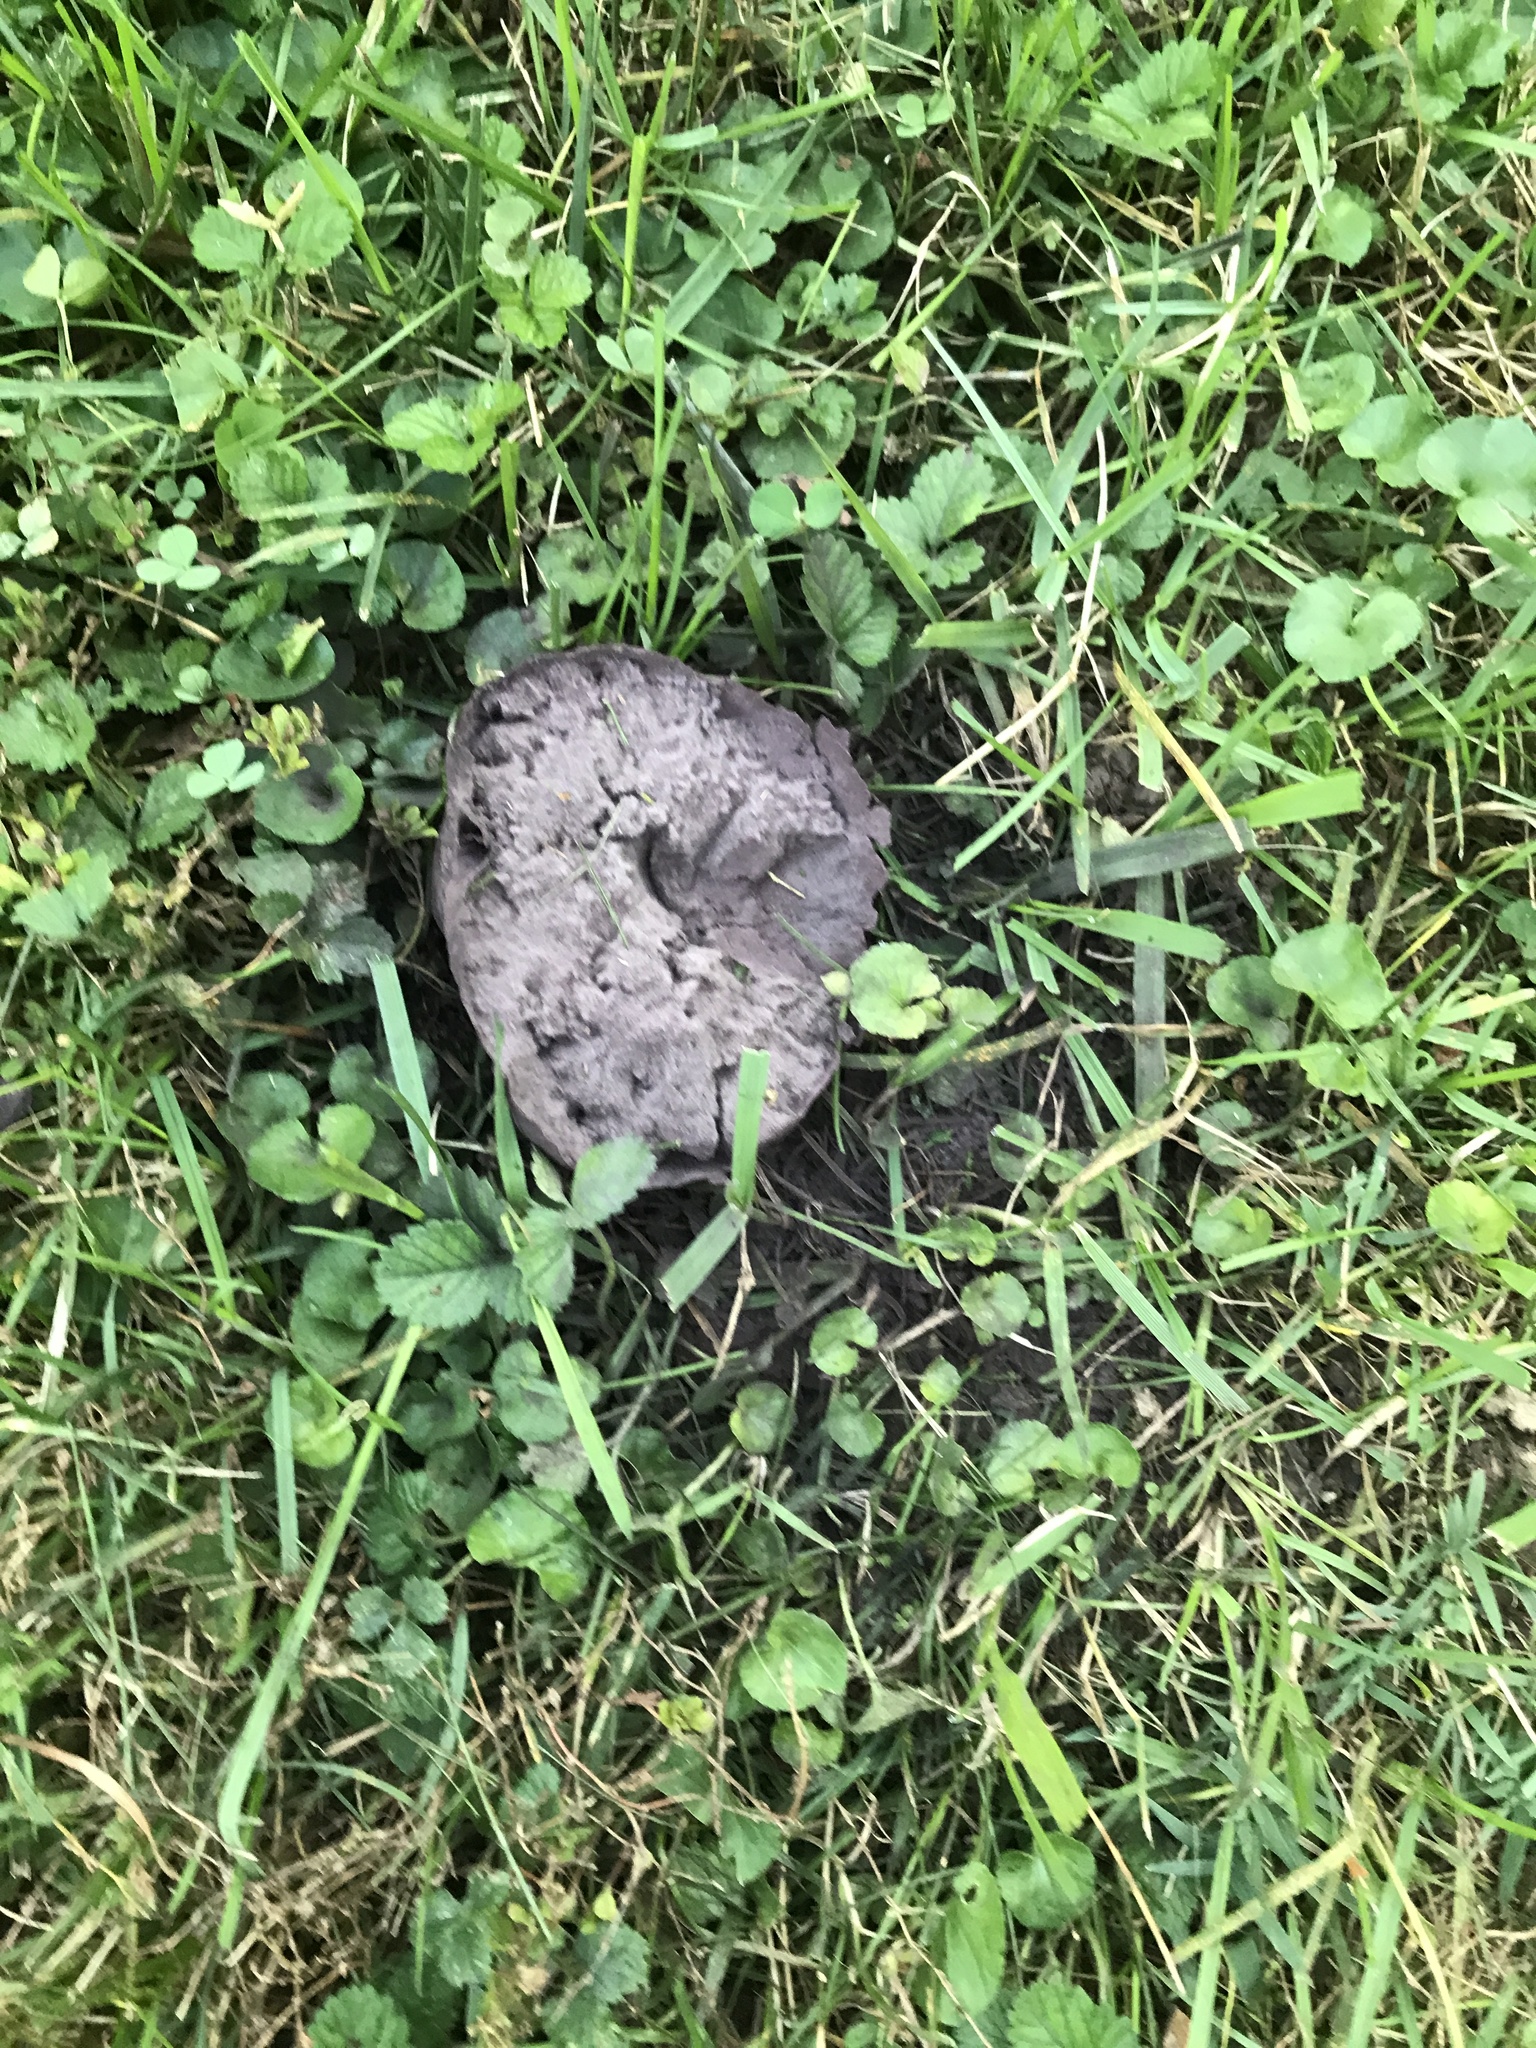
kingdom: Fungi
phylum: Basidiomycota
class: Agaricomycetes
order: Agaricales
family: Lycoperdaceae
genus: Calvatia
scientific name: Calvatia cyathiformis
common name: Purple-spored puffball
